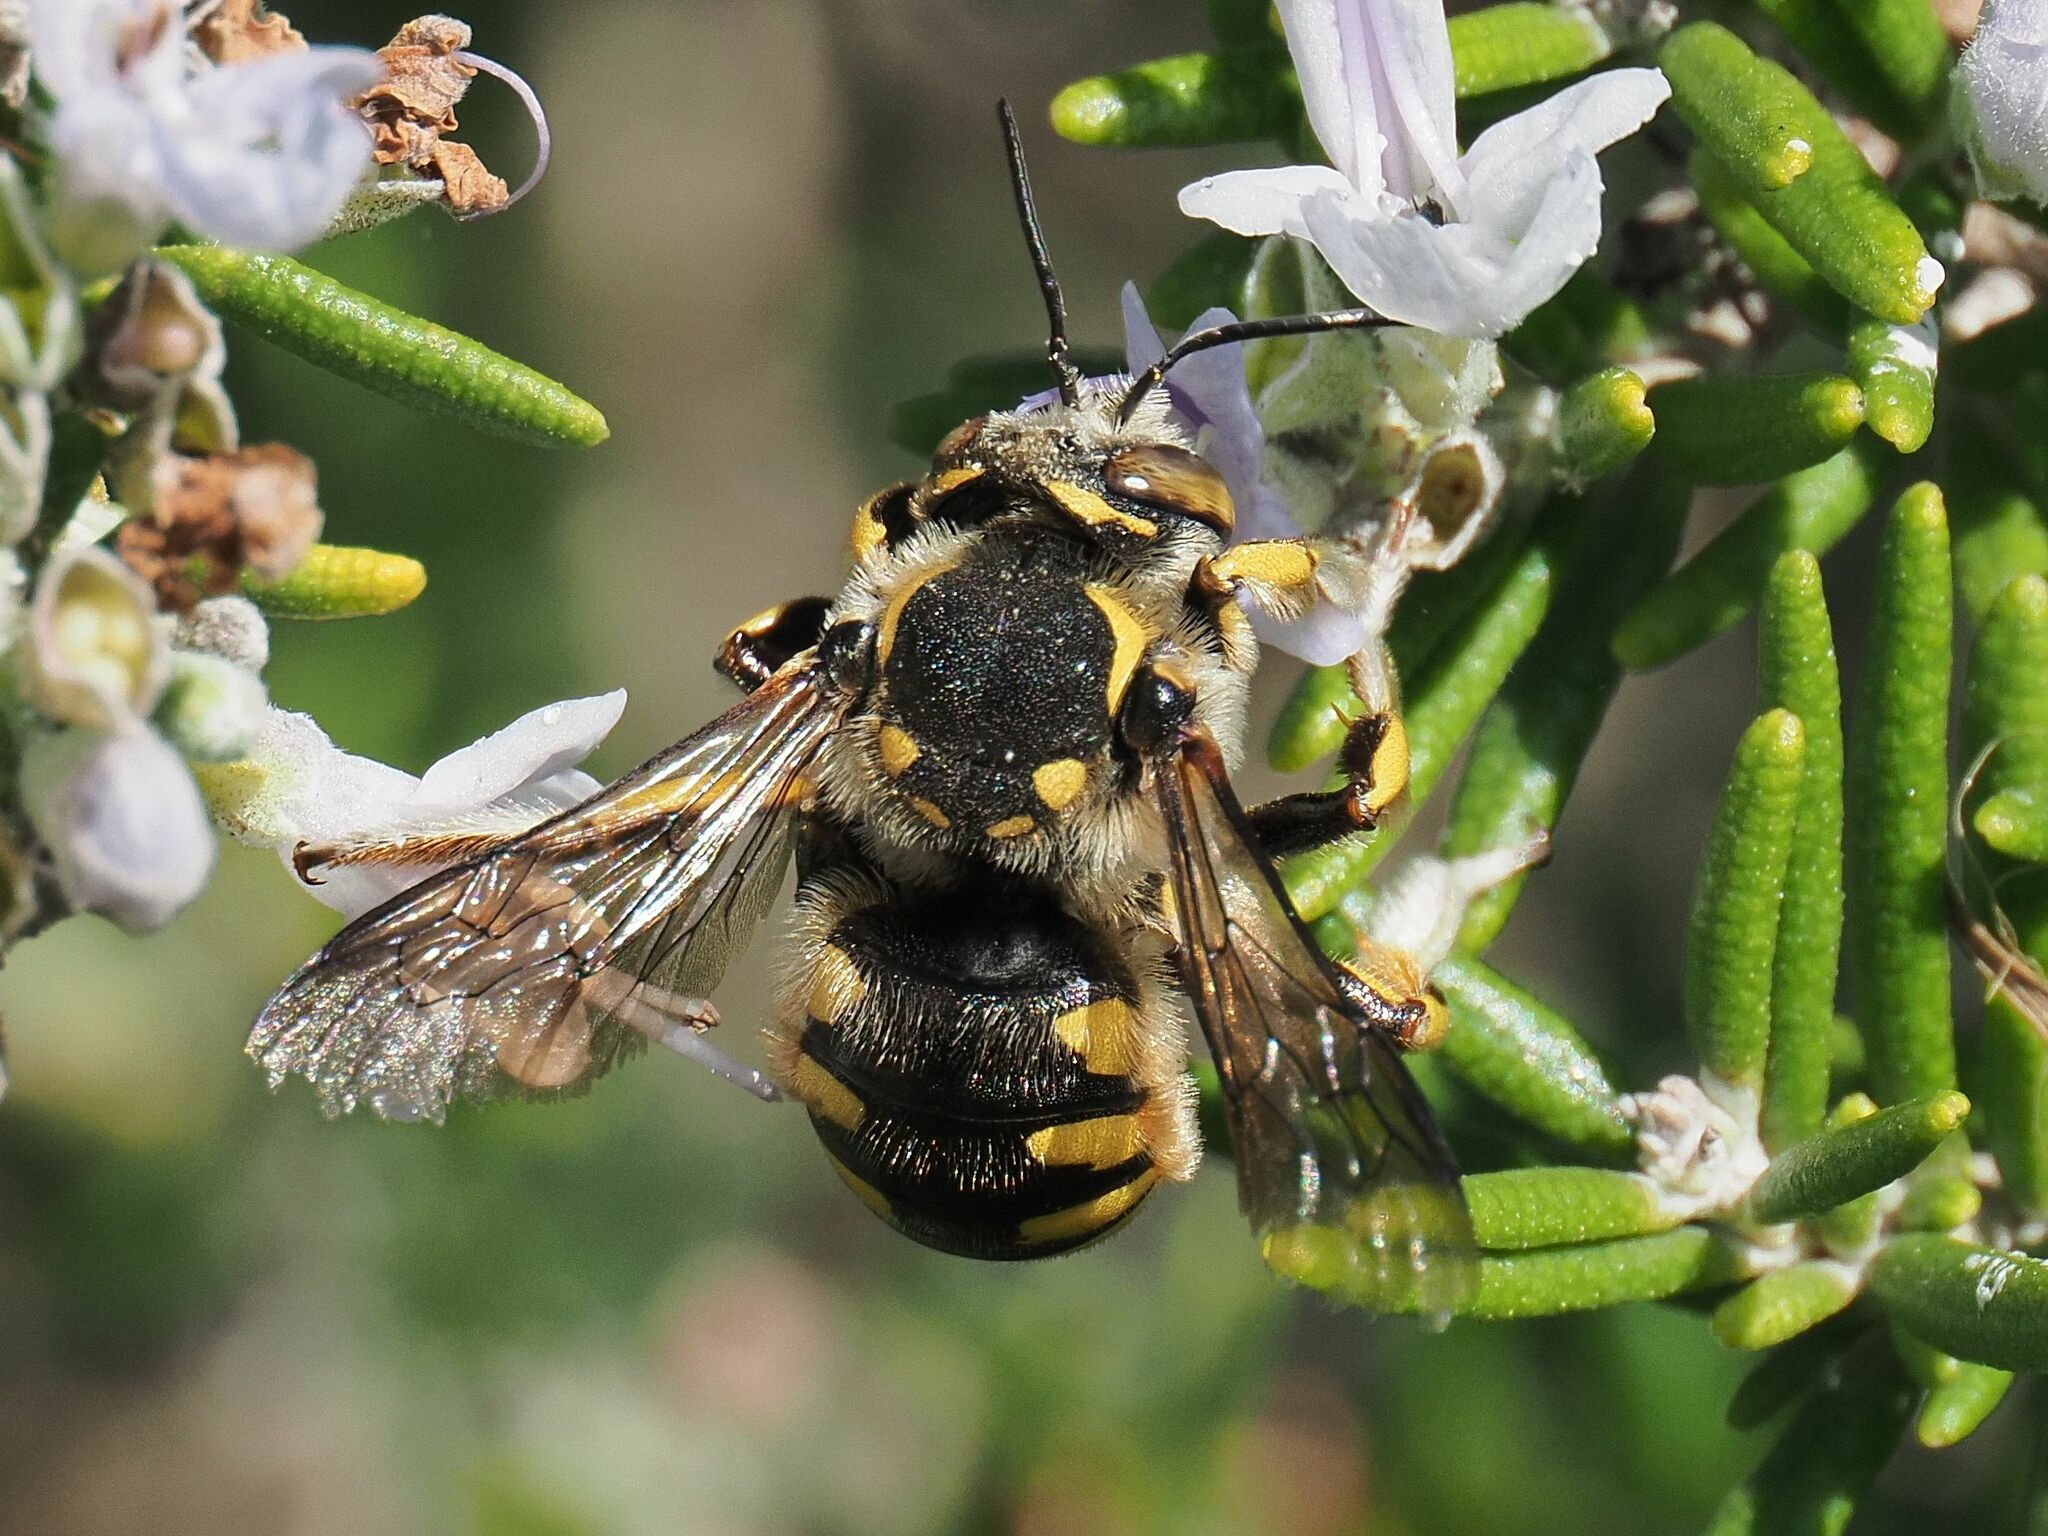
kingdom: Animalia
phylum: Arthropoda
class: Insecta
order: Hymenoptera
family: Megachilidae
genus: Anthidium
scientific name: Anthidium florentinum
